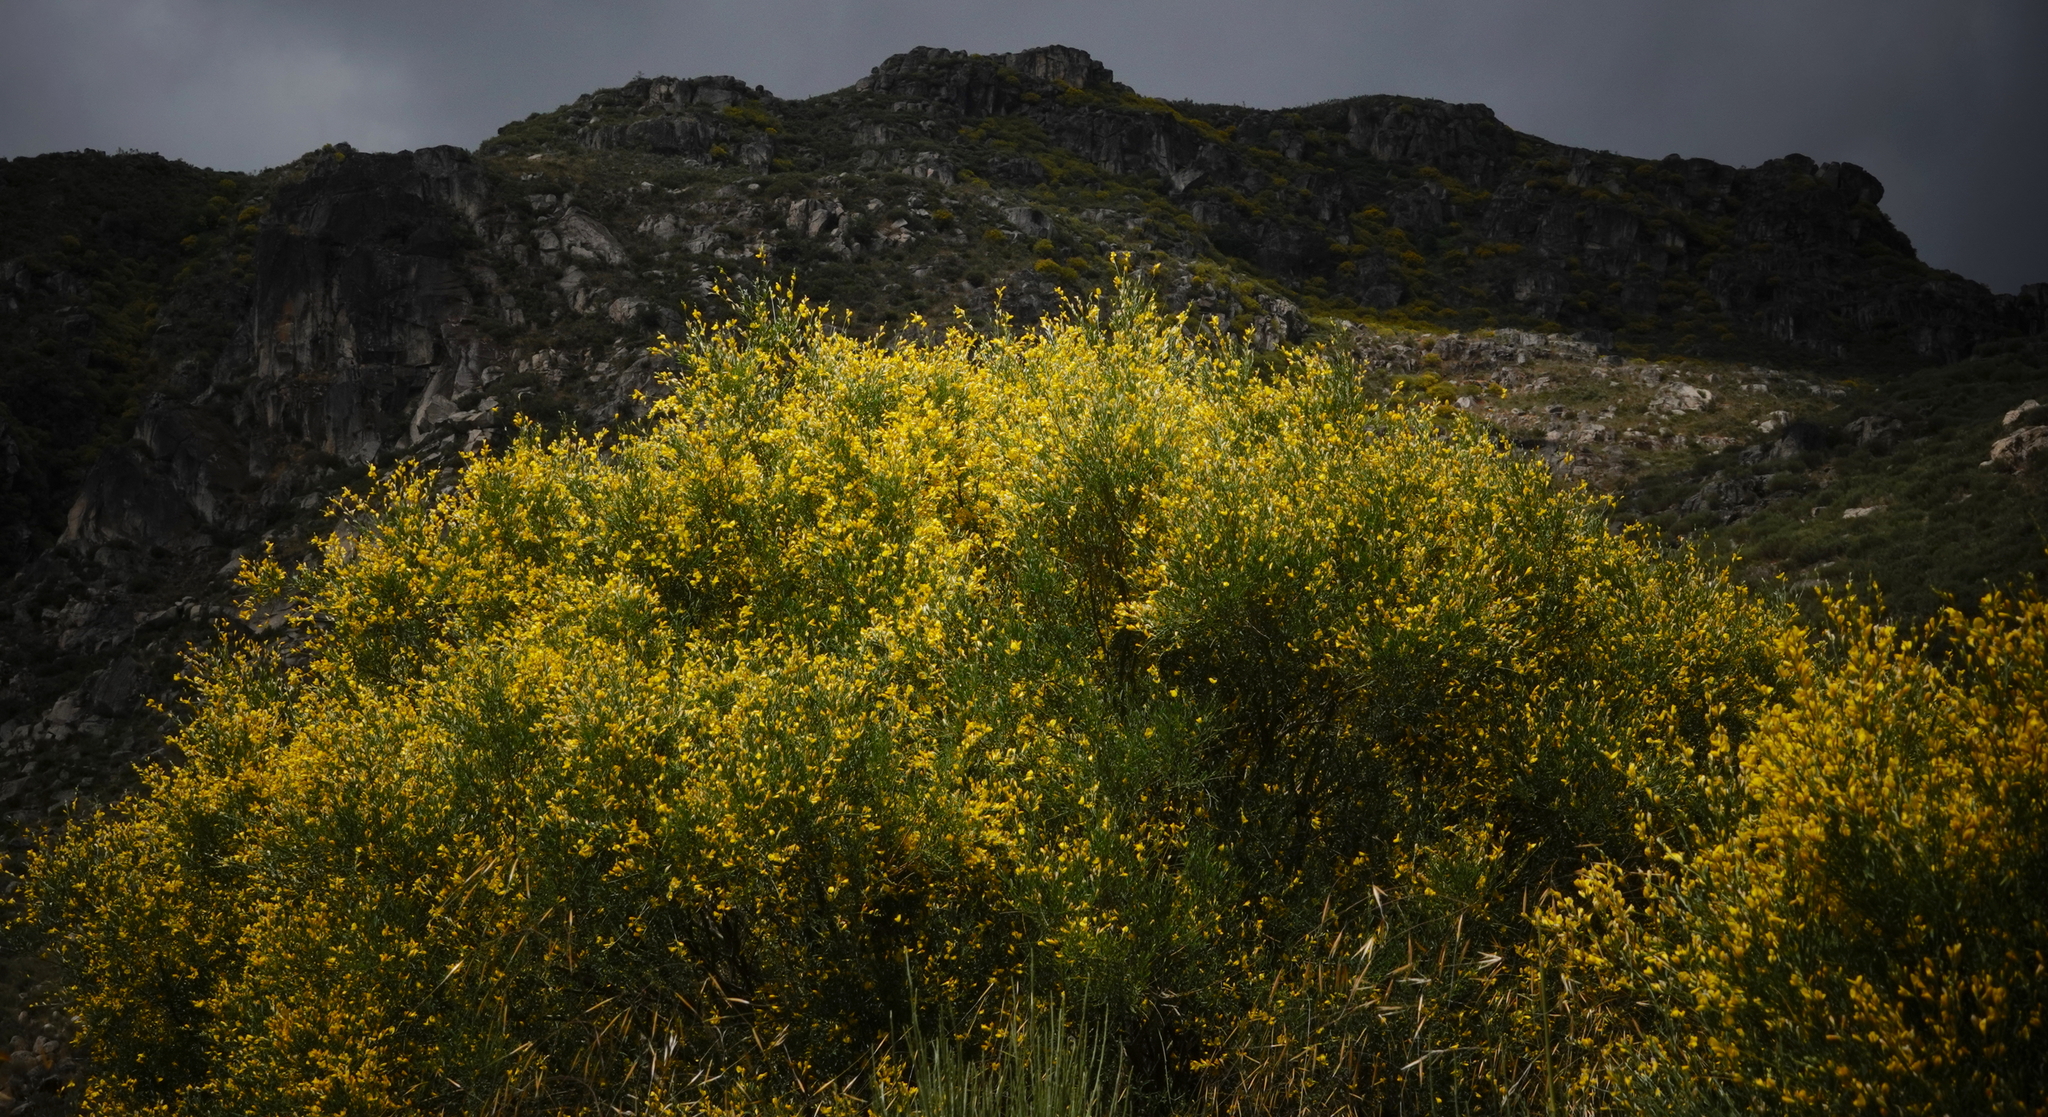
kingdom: Plantae
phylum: Tracheophyta
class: Magnoliopsida
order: Fabales
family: Fabaceae
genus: Genista
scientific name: Genista florida
